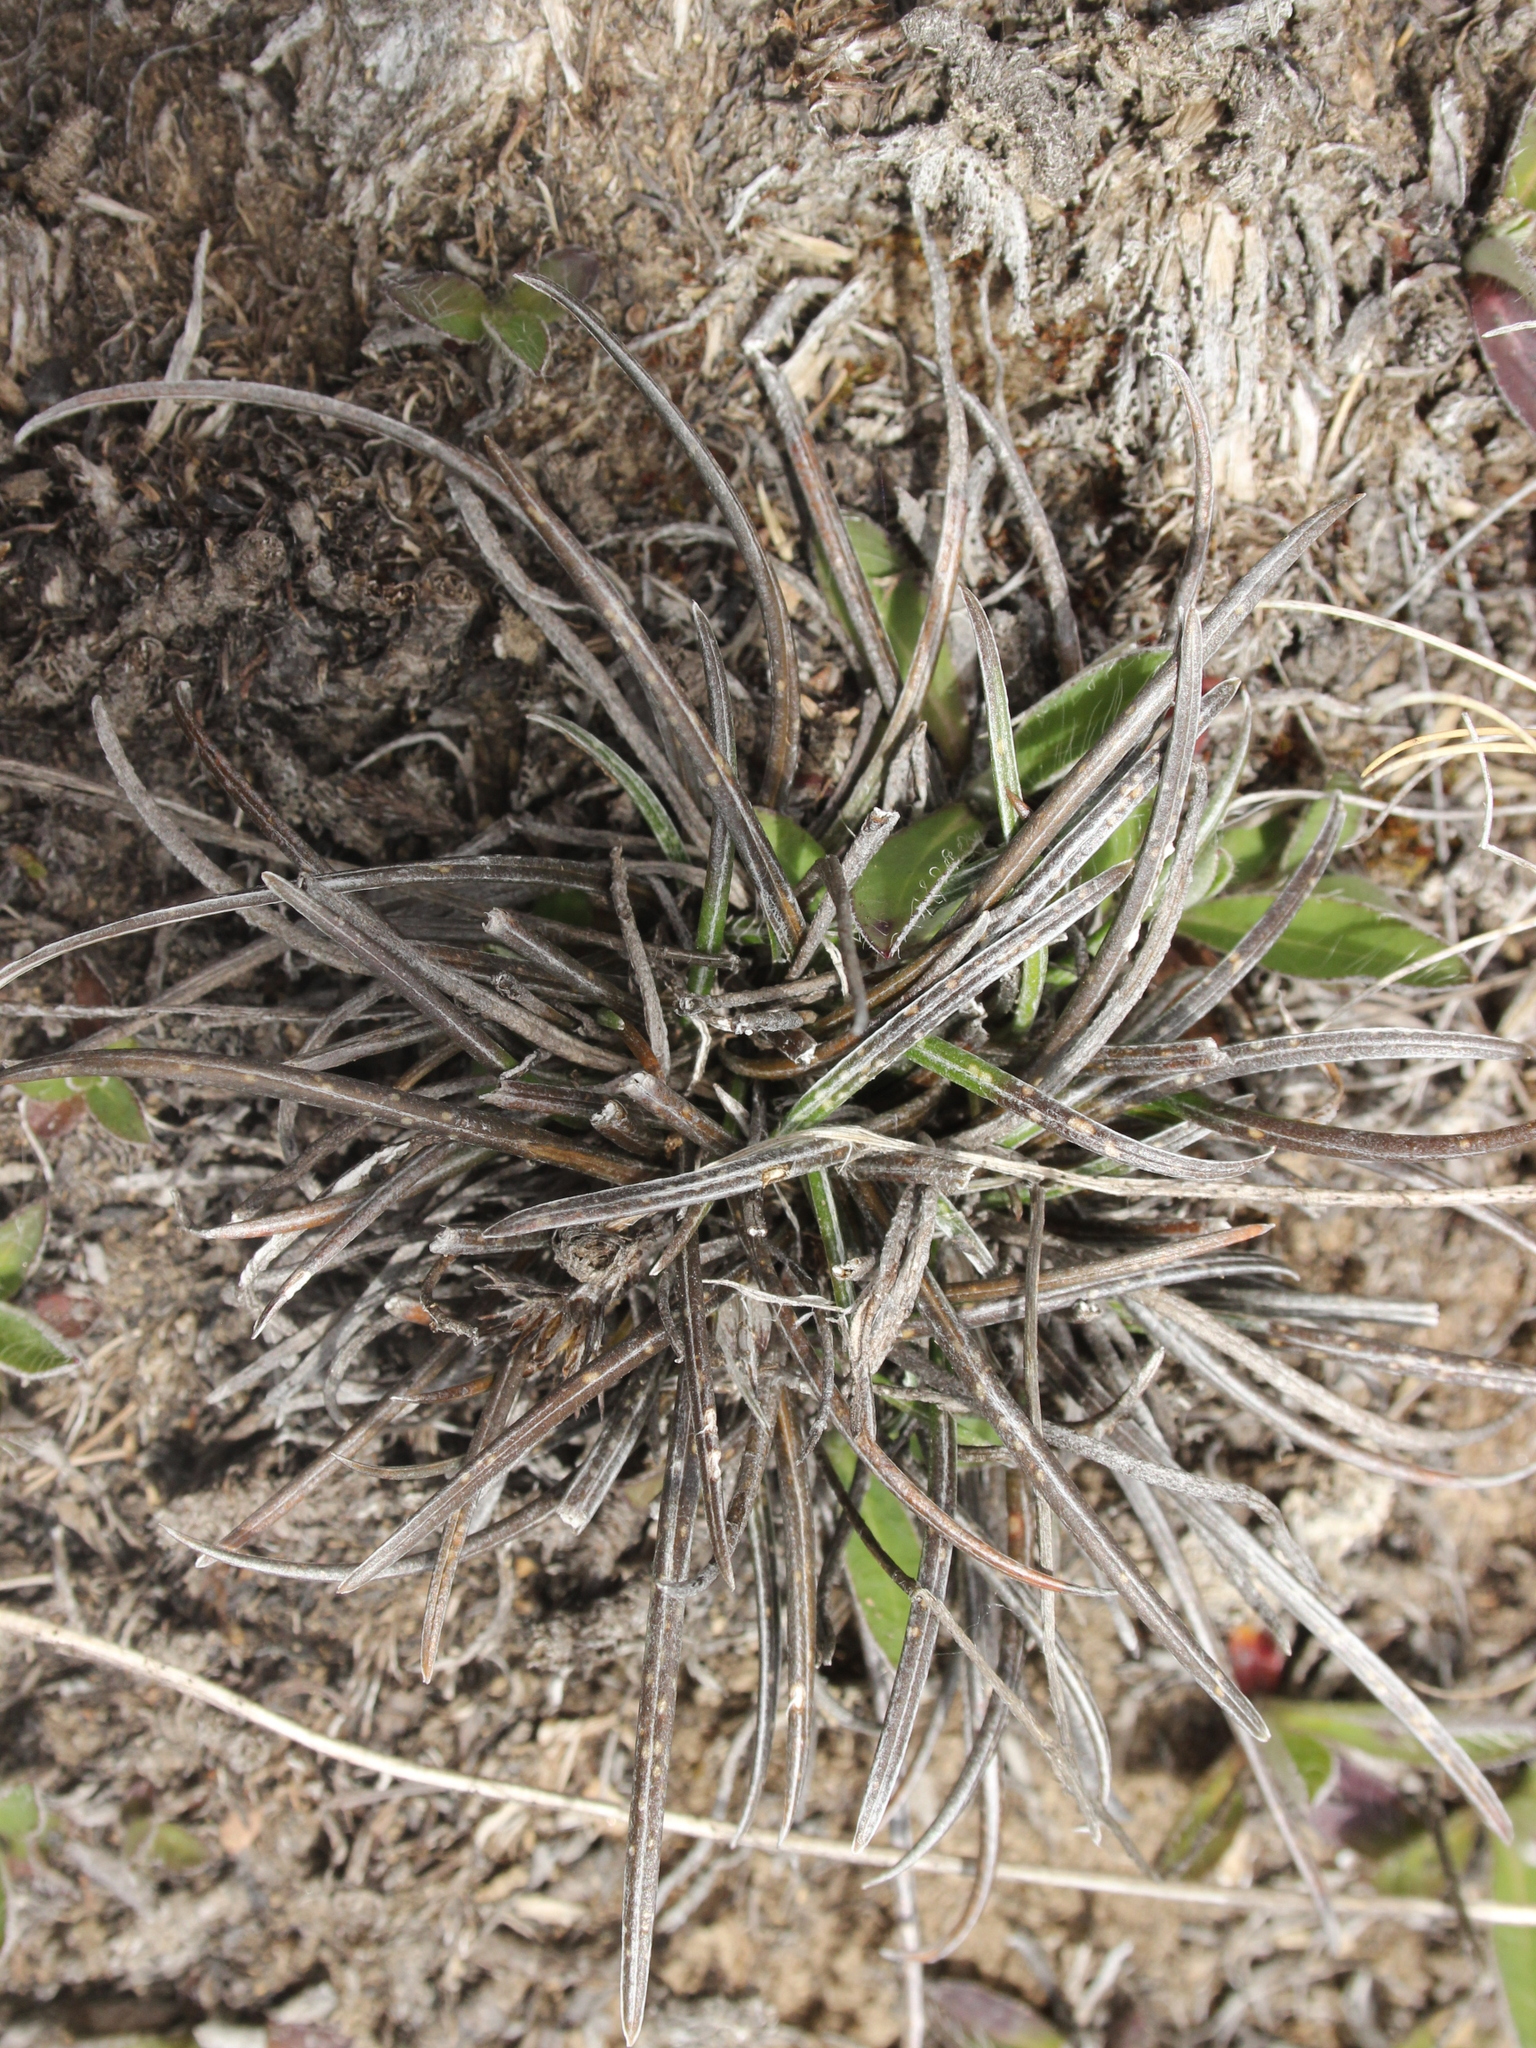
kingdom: Plantae
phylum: Tracheophyta
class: Magnoliopsida
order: Asterales
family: Asteraceae
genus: Celmisia
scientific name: Celmisia gracilenta
